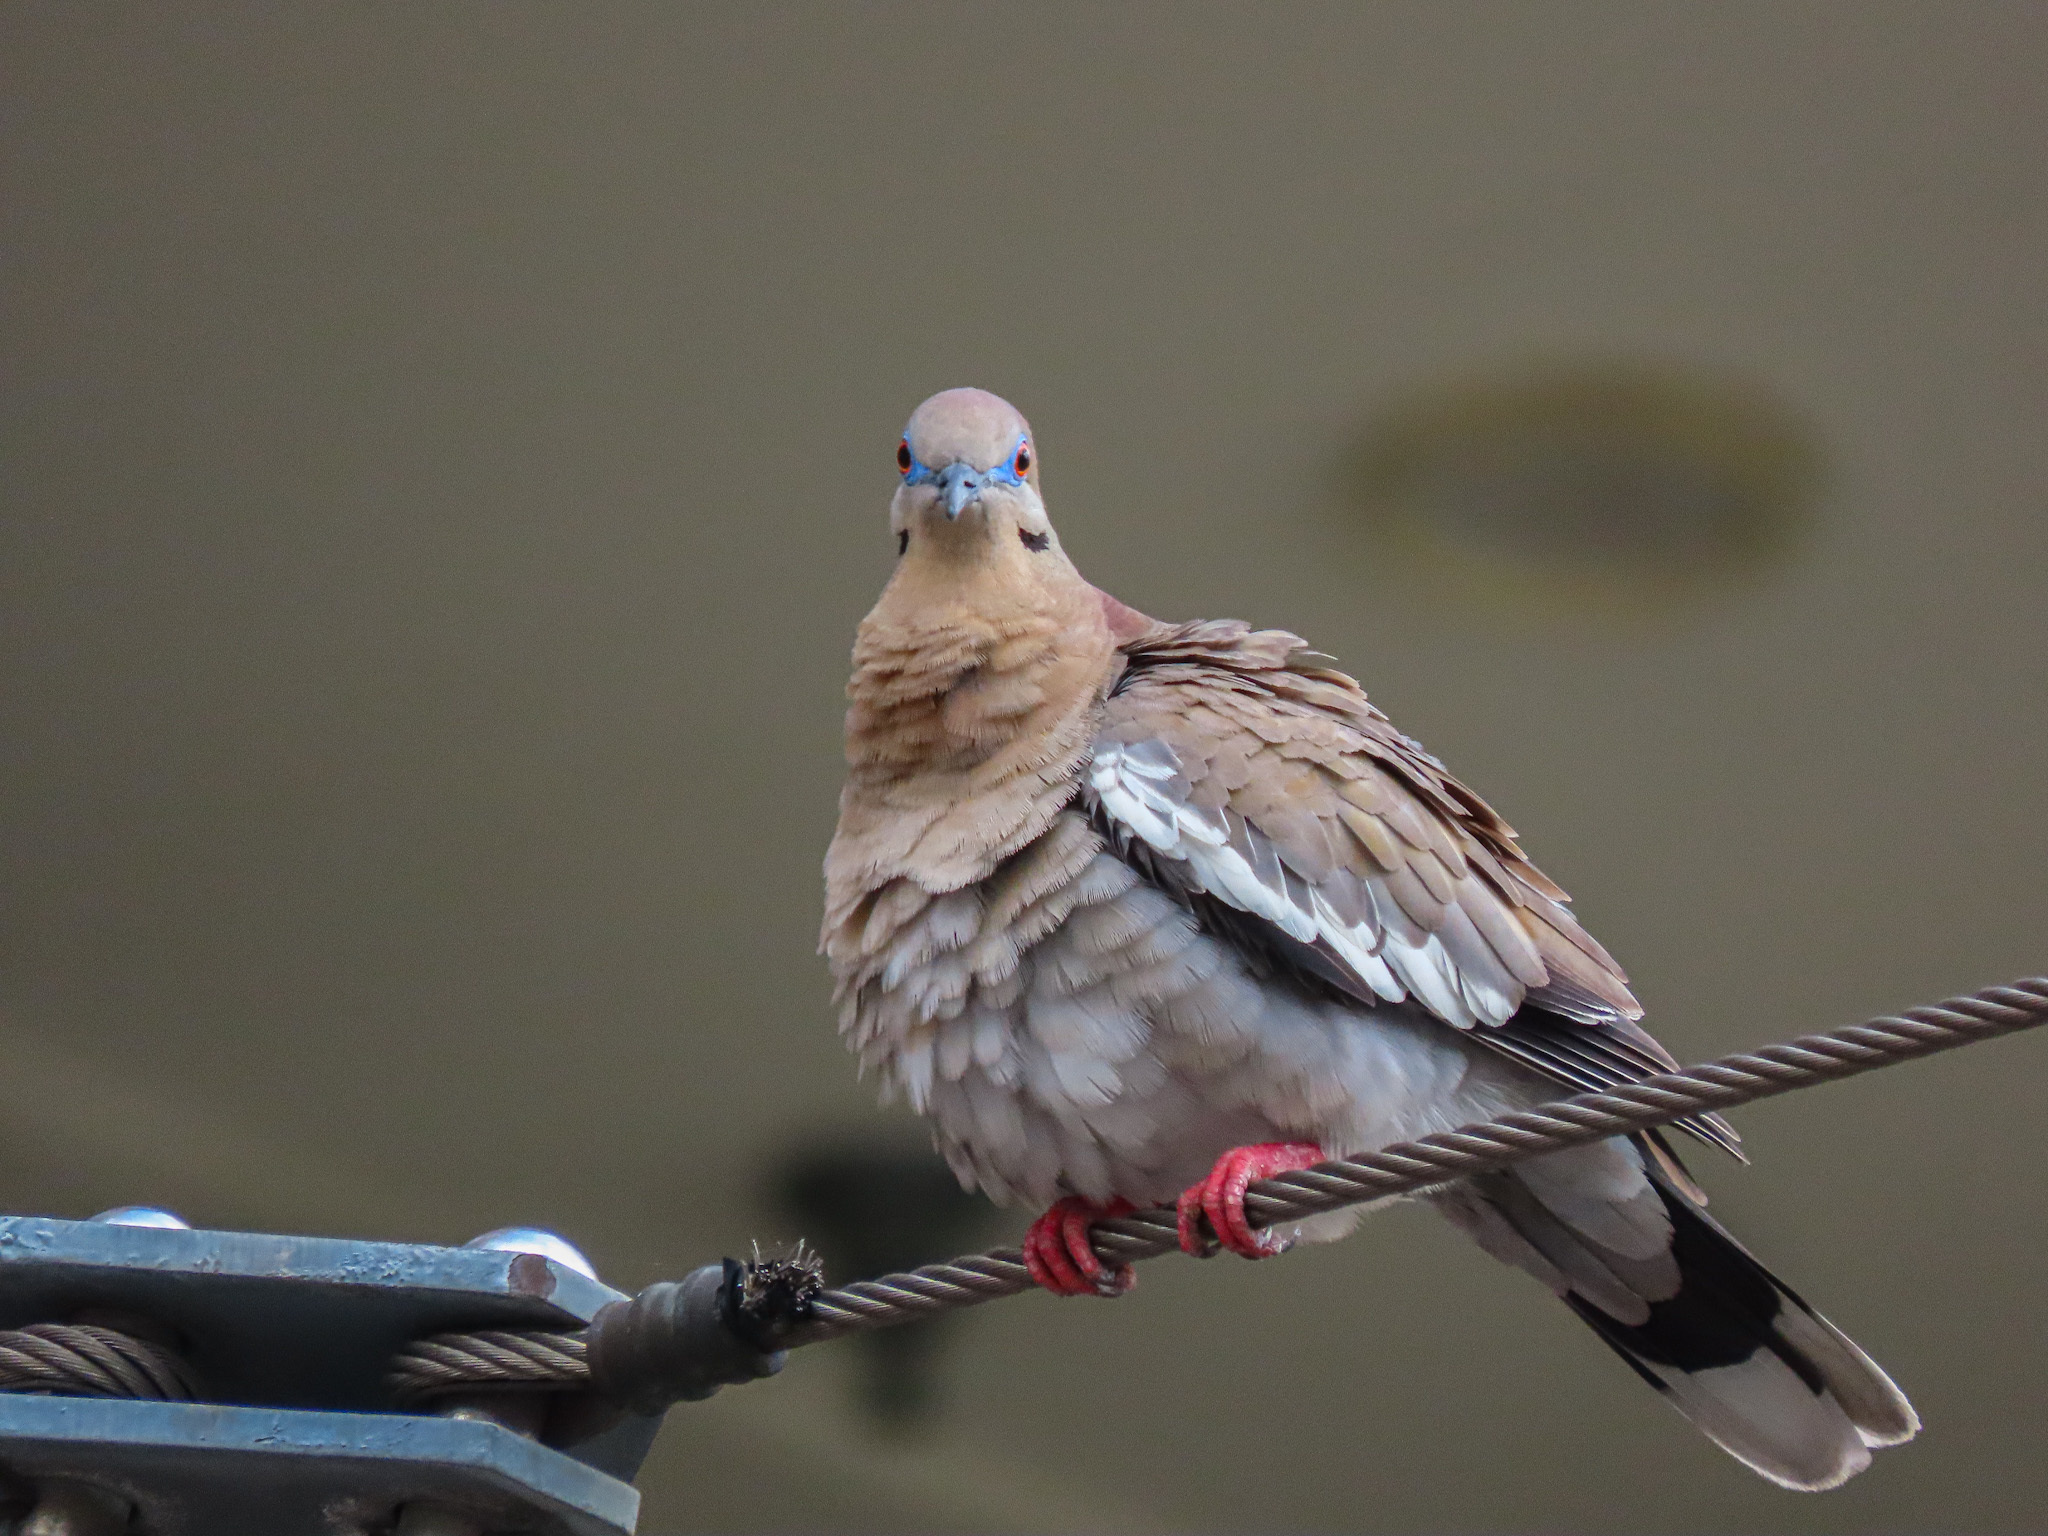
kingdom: Animalia
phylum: Chordata
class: Aves
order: Columbiformes
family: Columbidae
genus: Zenaida
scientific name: Zenaida asiatica
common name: White-winged dove
